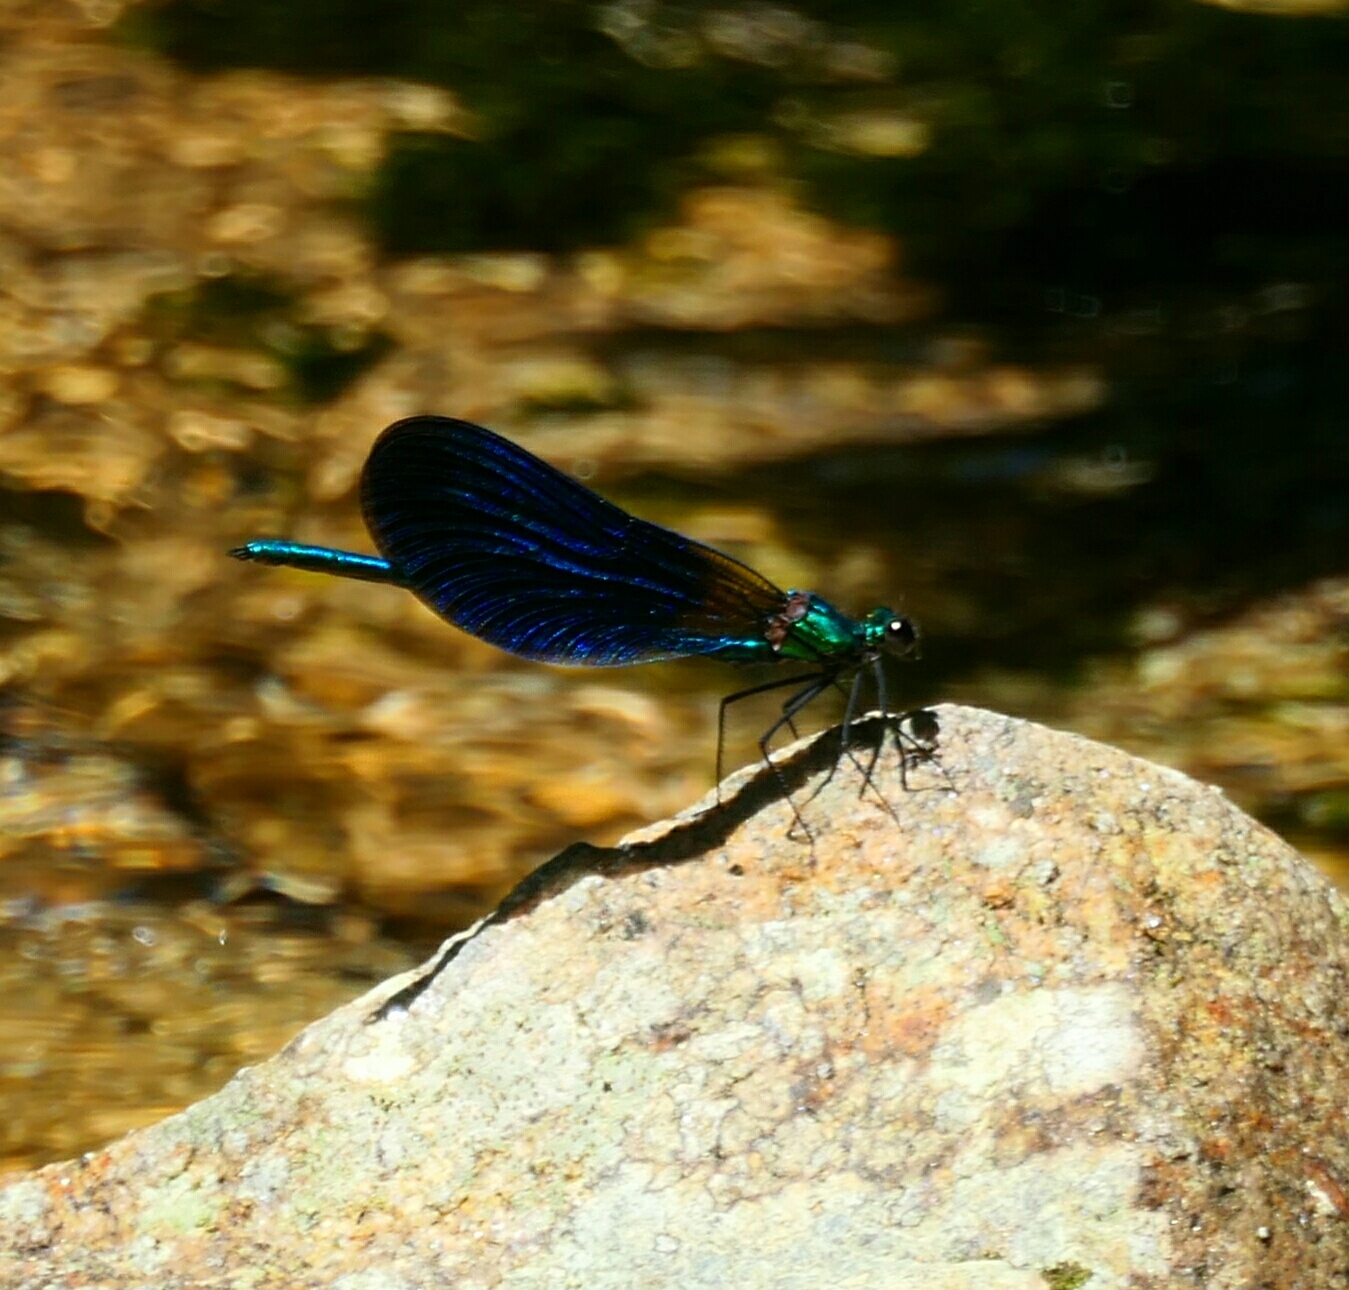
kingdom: Animalia
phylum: Arthropoda
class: Insecta
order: Odonata
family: Calopterygidae
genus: Calopteryx
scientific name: Calopteryx virgo
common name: Beautiful demoiselle
